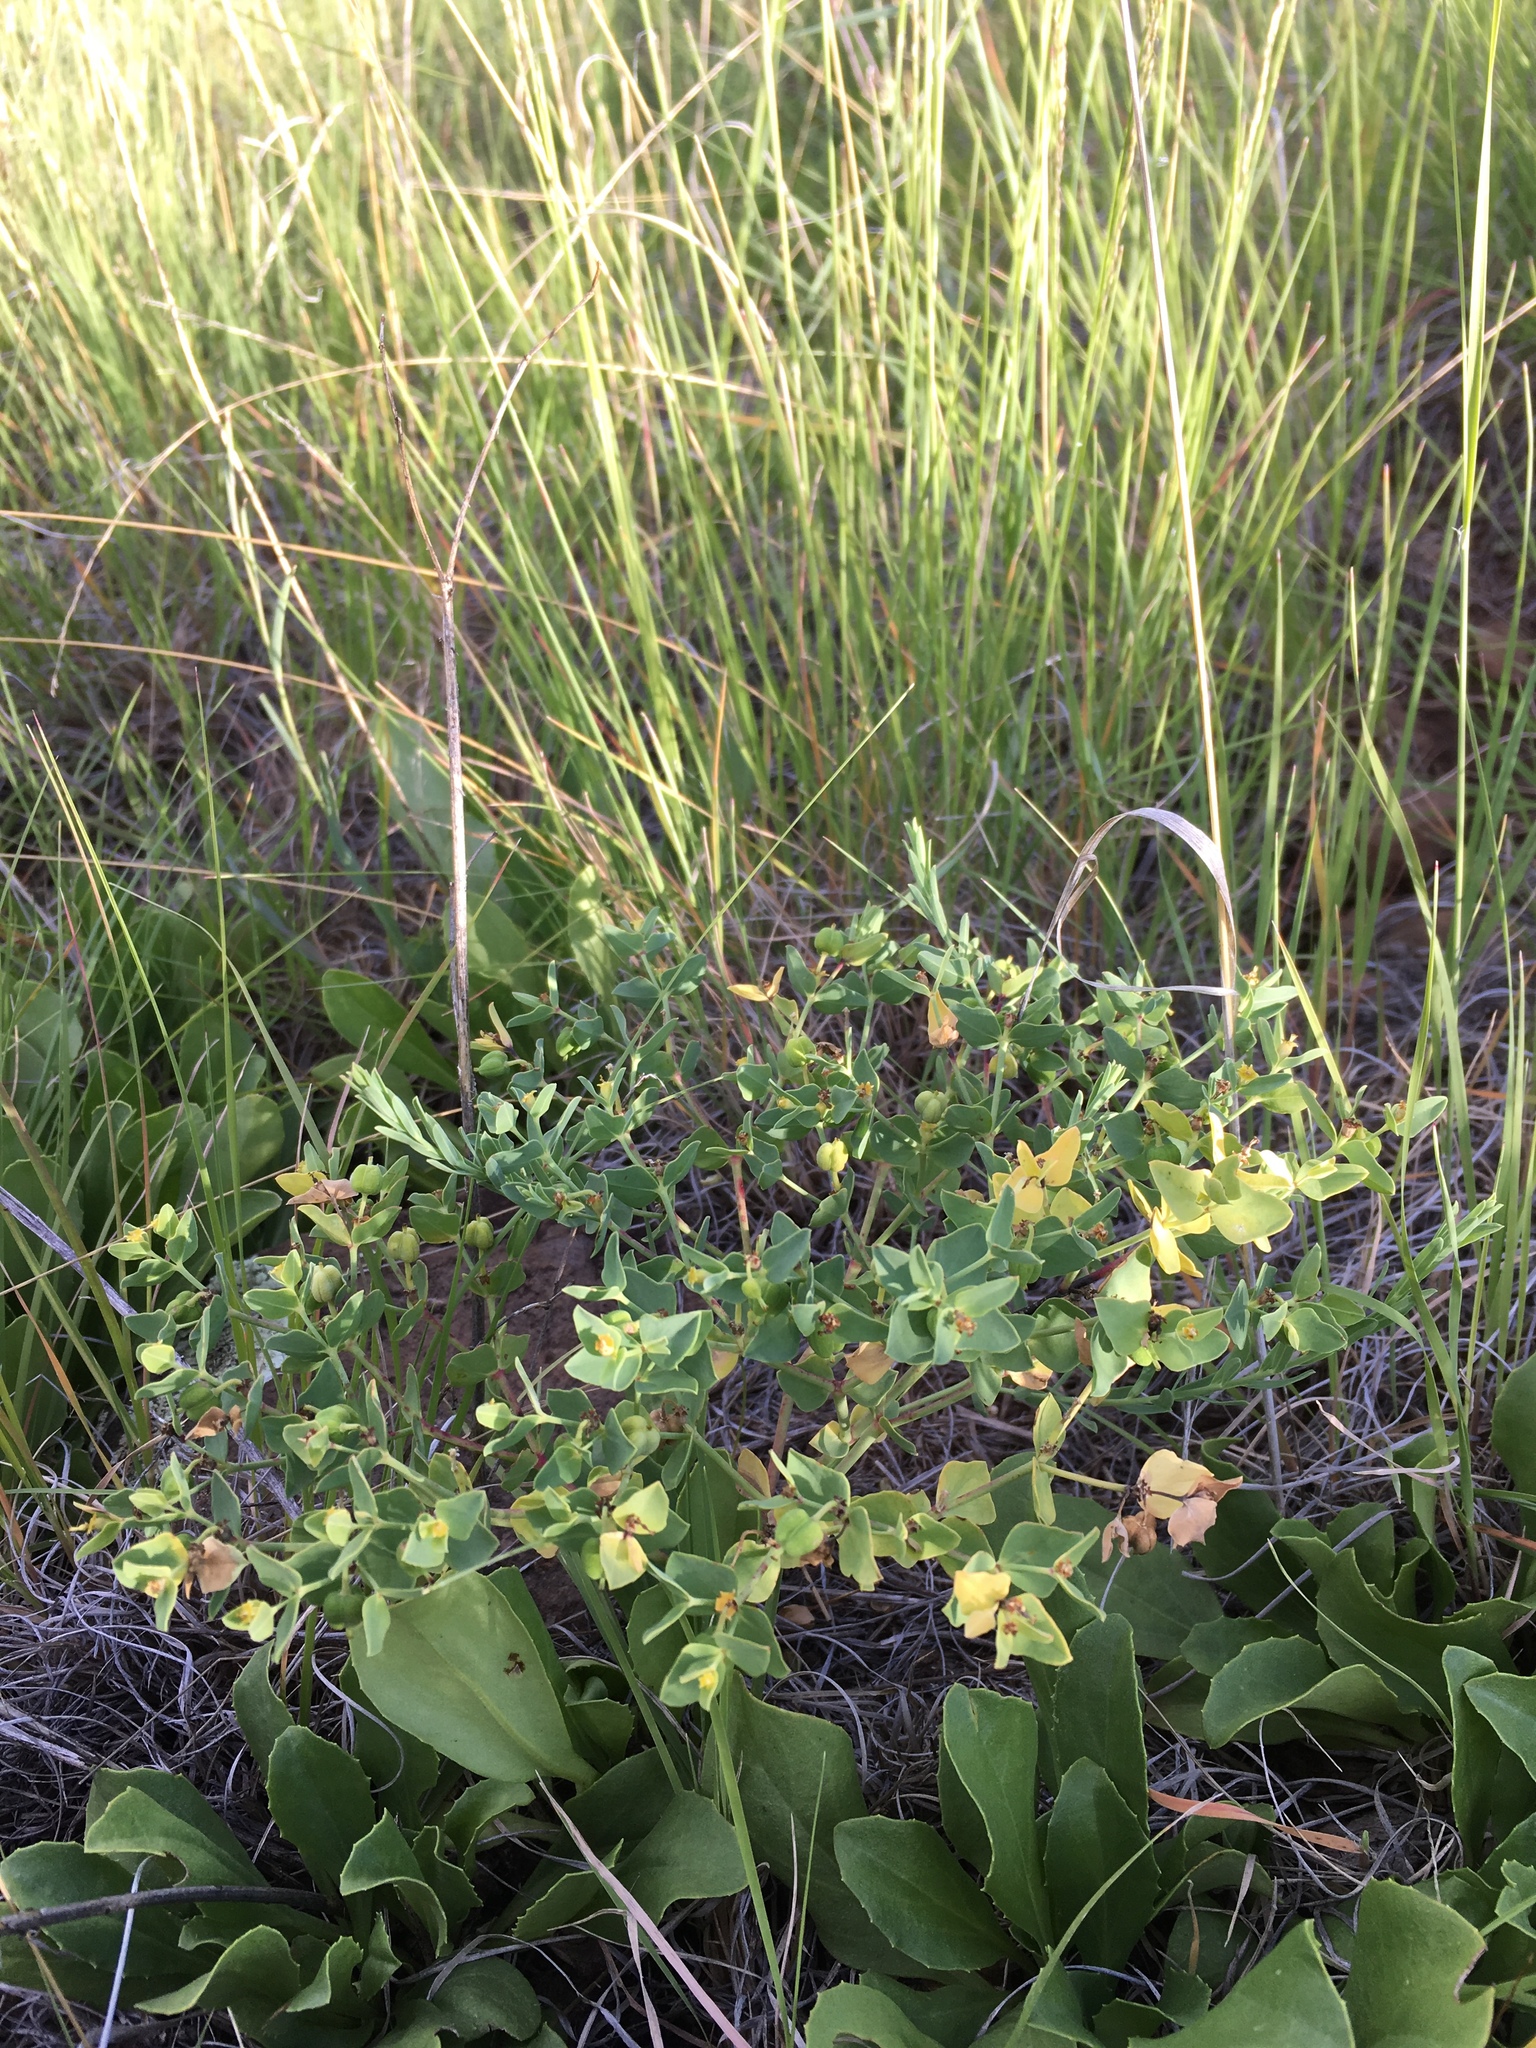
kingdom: Plantae
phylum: Tracheophyta
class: Magnoliopsida
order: Malpighiales
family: Euphorbiaceae
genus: Euphorbia
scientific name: Euphorbia chamaesula
